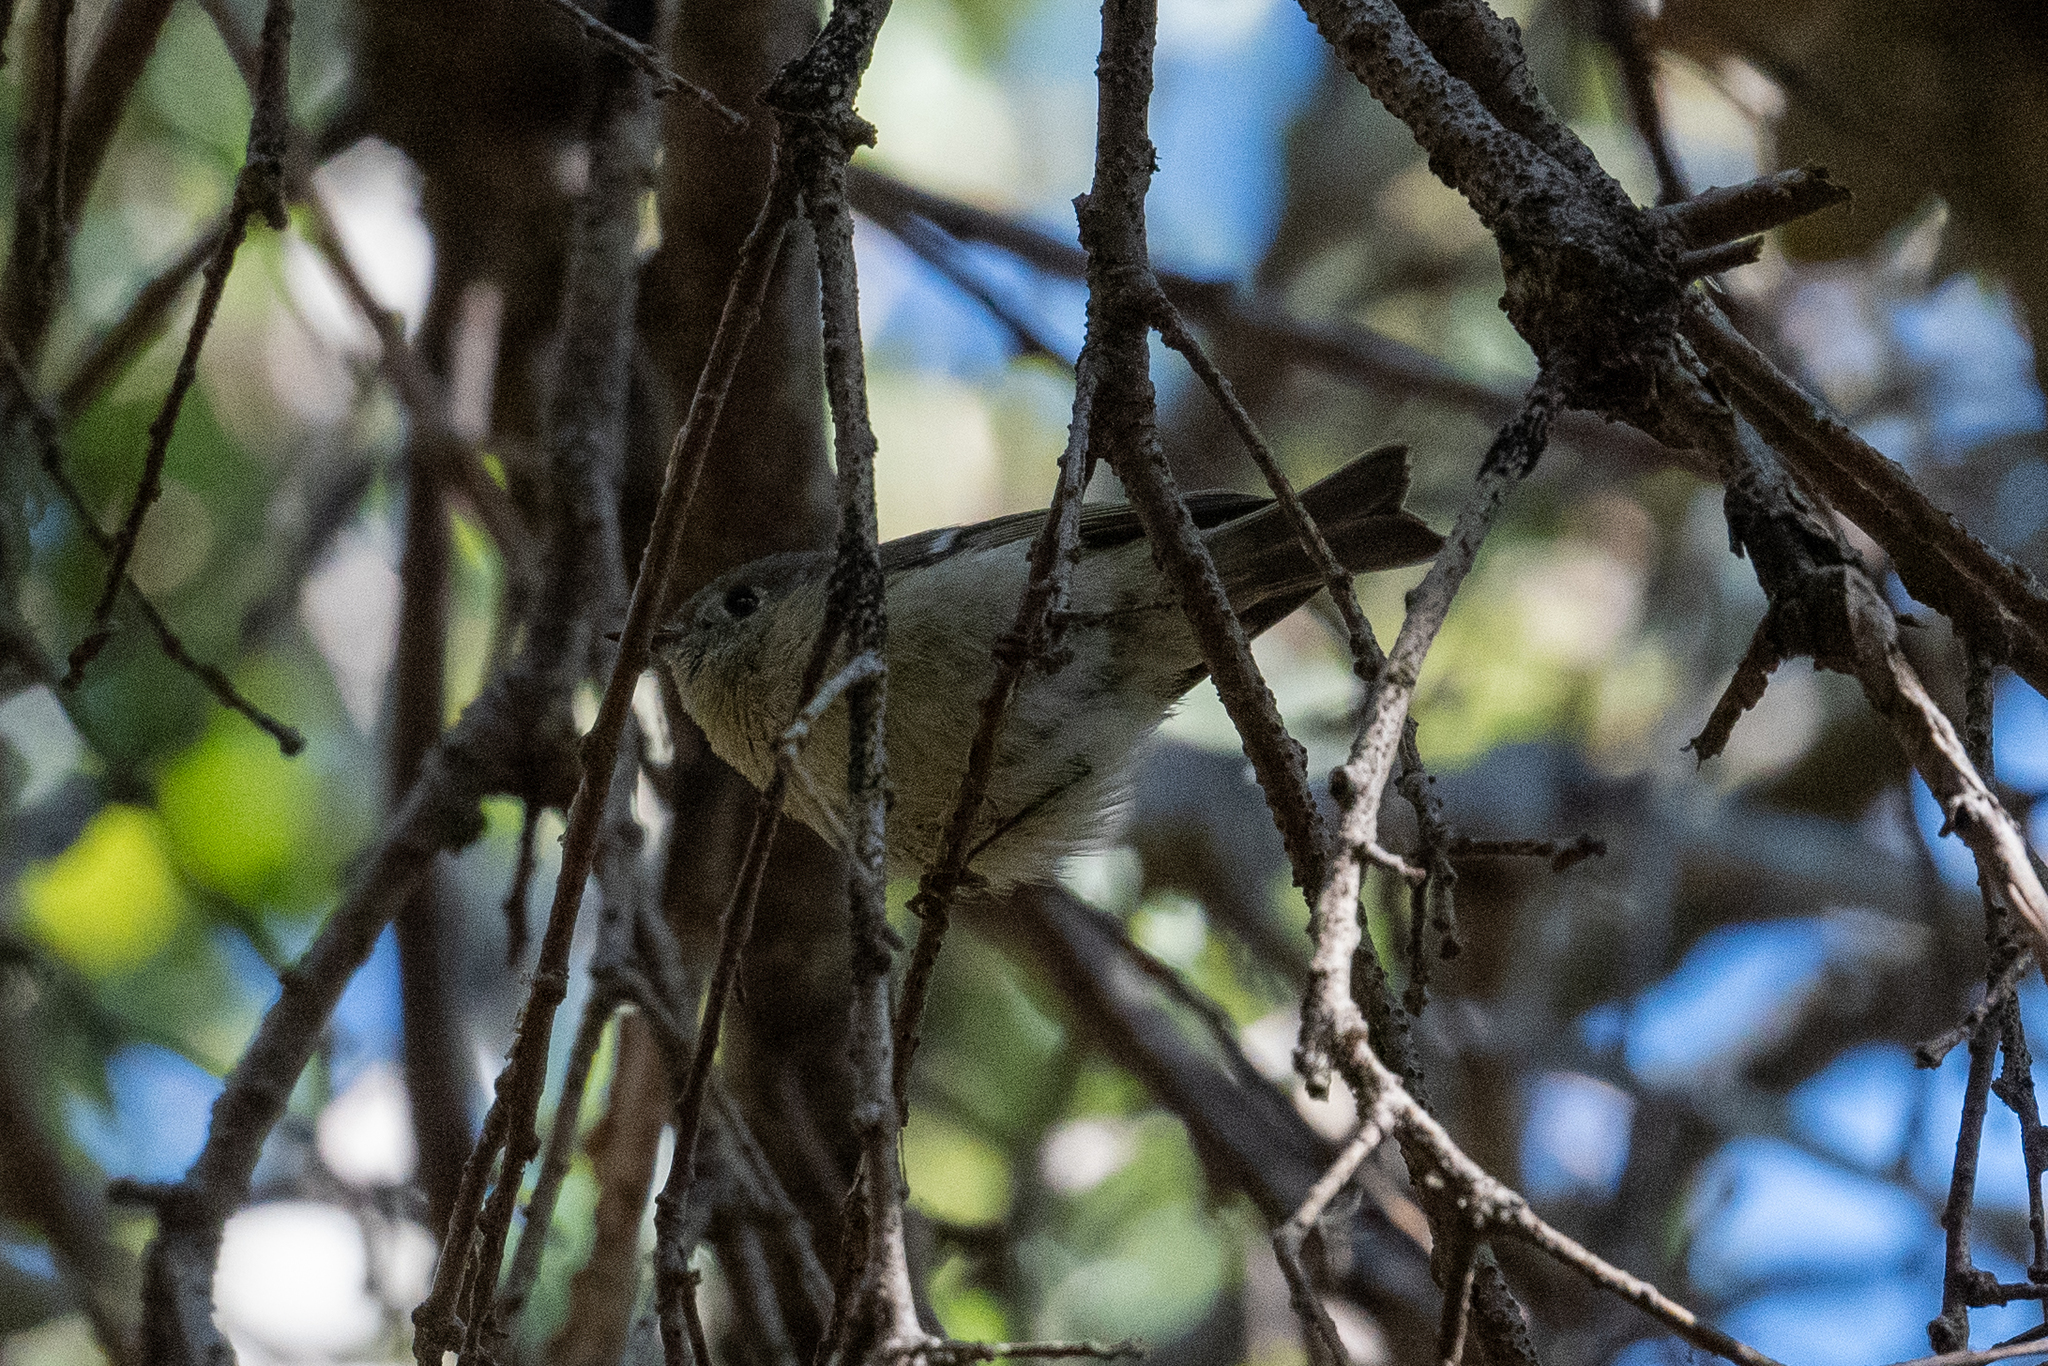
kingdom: Animalia
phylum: Chordata
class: Aves
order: Passeriformes
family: Regulidae
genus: Regulus
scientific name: Regulus calendula
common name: Ruby-crowned kinglet
